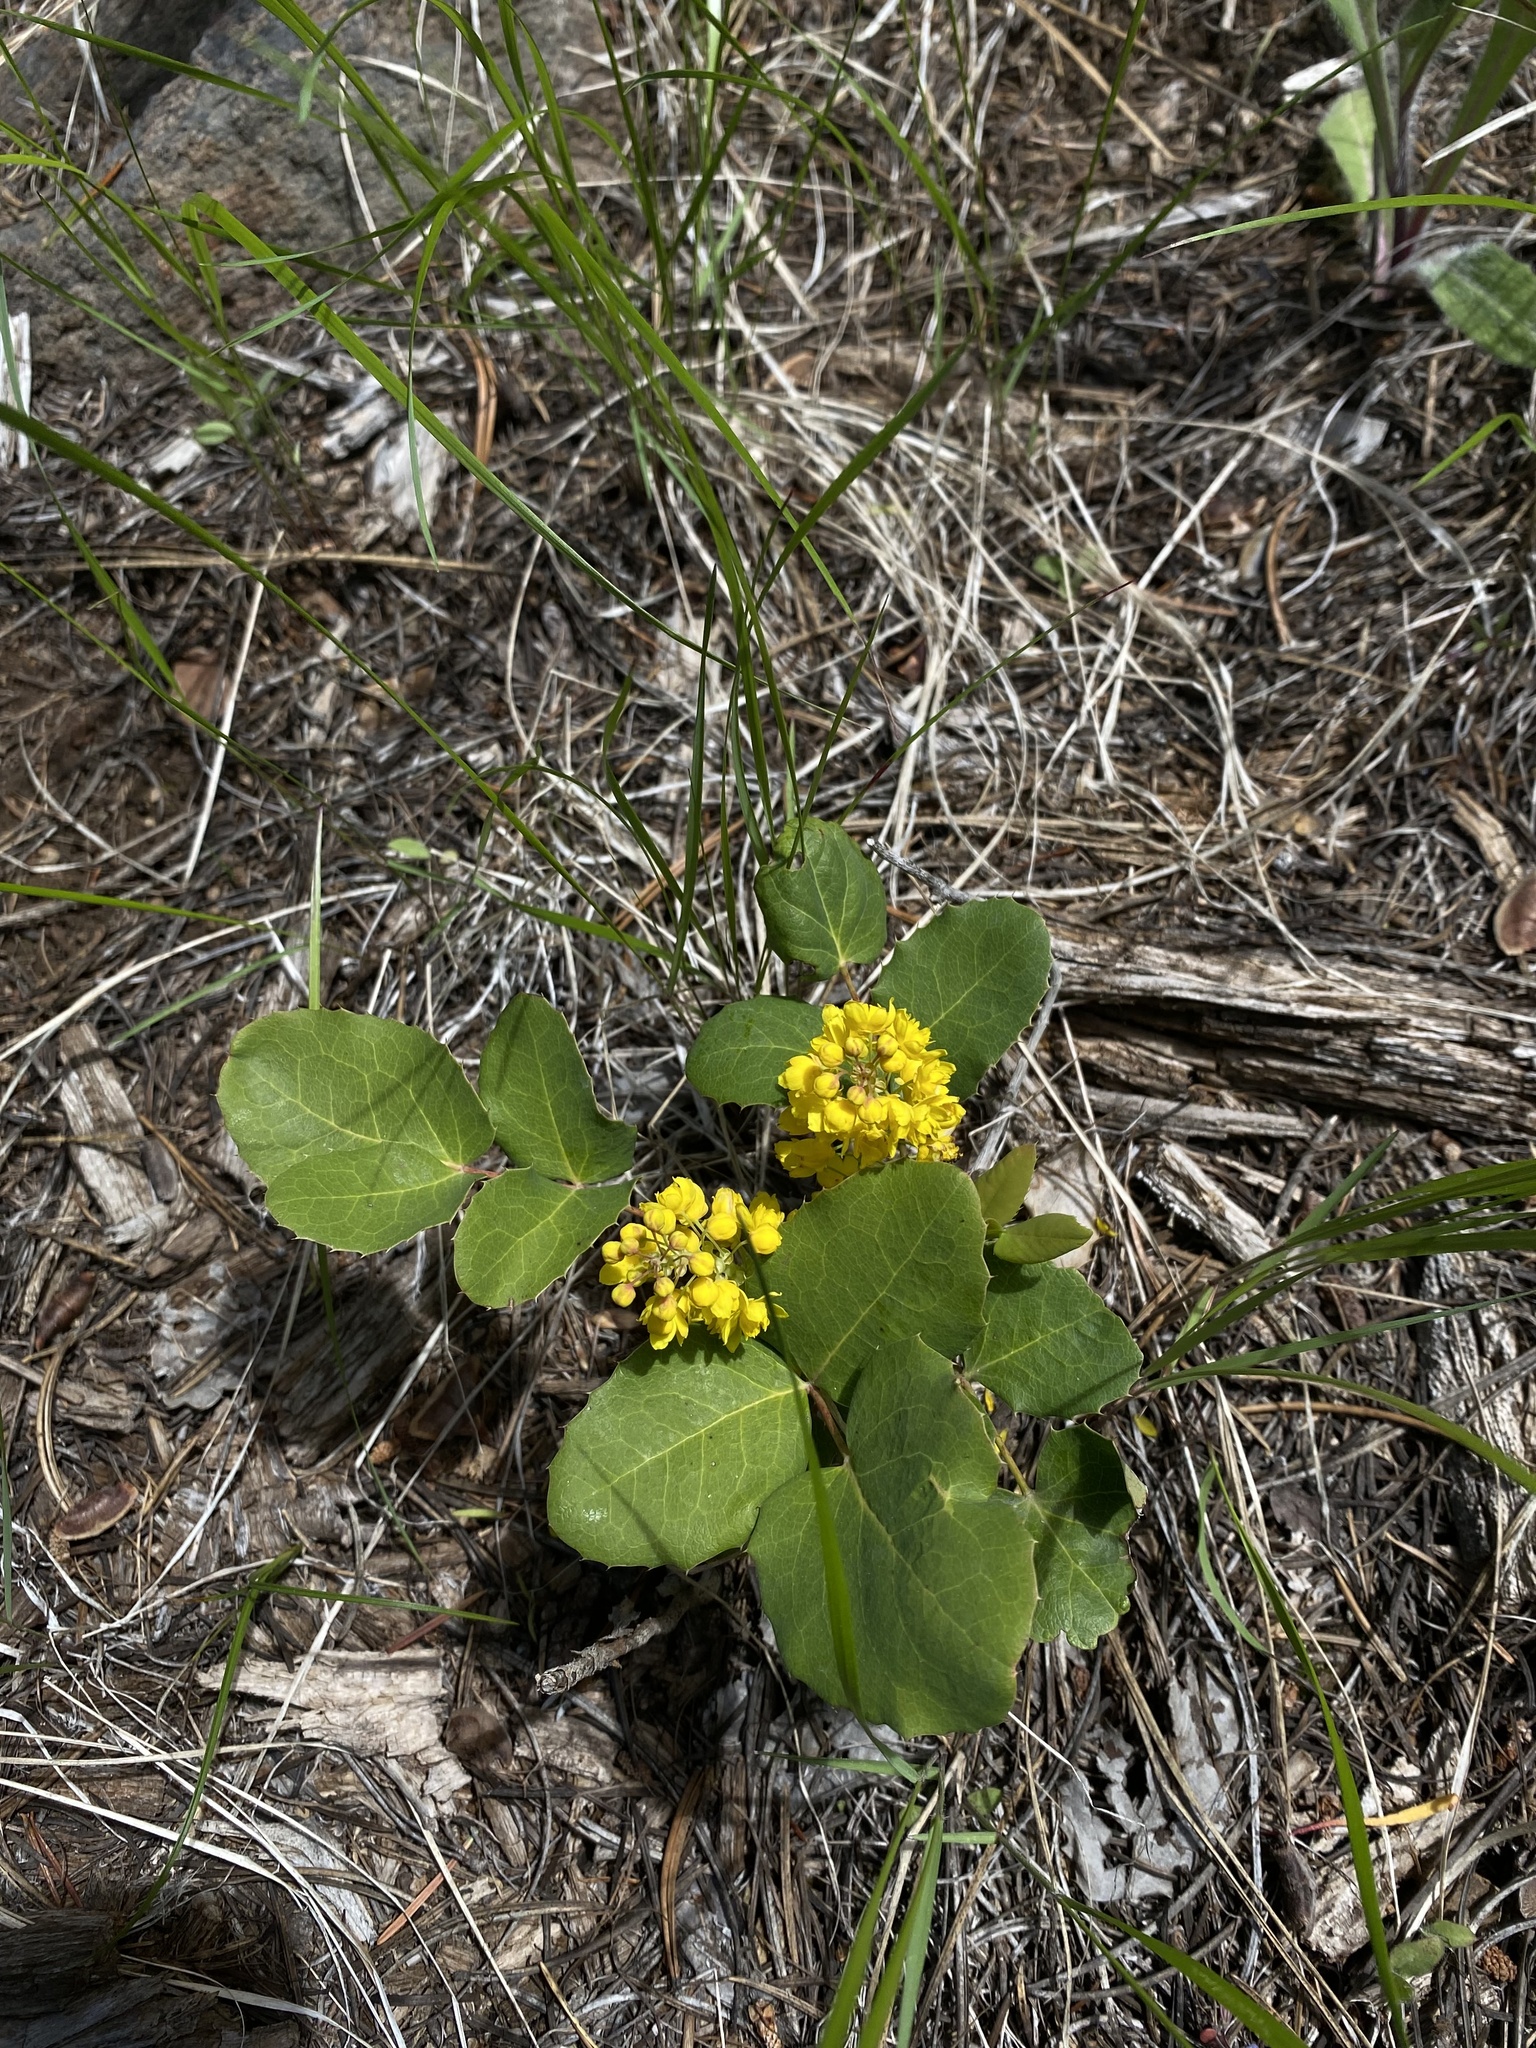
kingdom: Plantae
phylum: Tracheophyta
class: Magnoliopsida
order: Ranunculales
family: Berberidaceae
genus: Mahonia
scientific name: Mahonia repens
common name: Creeping oregon-grape
